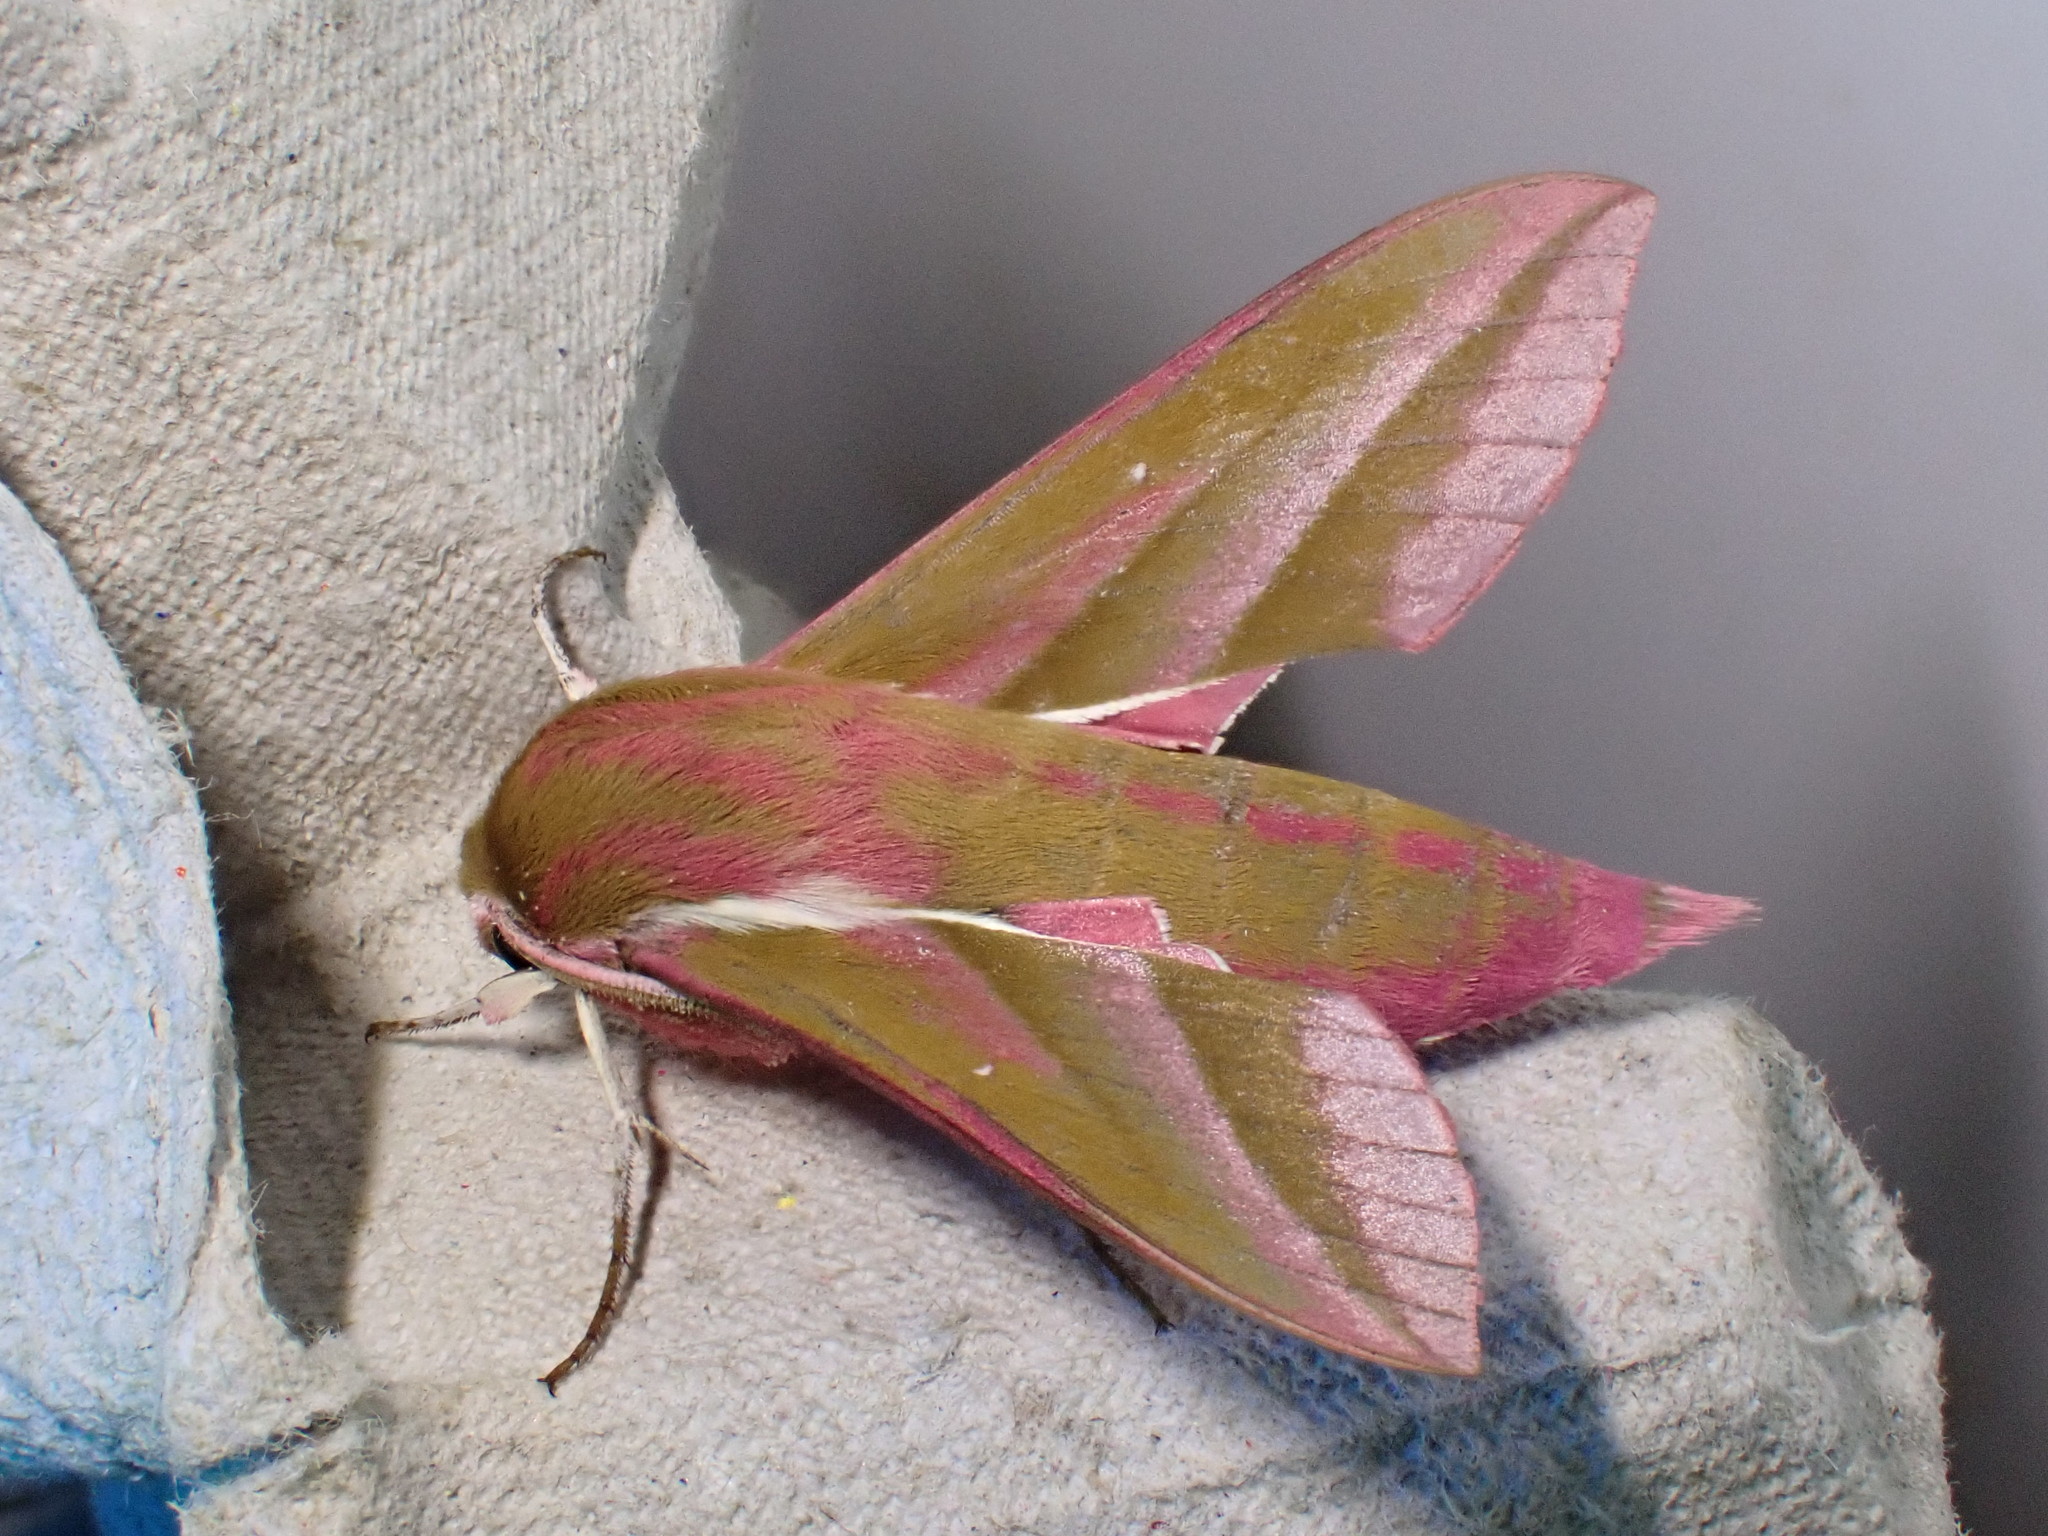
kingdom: Animalia
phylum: Arthropoda
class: Insecta
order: Lepidoptera
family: Sphingidae
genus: Deilephila
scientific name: Deilephila elpenor
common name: Elephant hawk-moth
